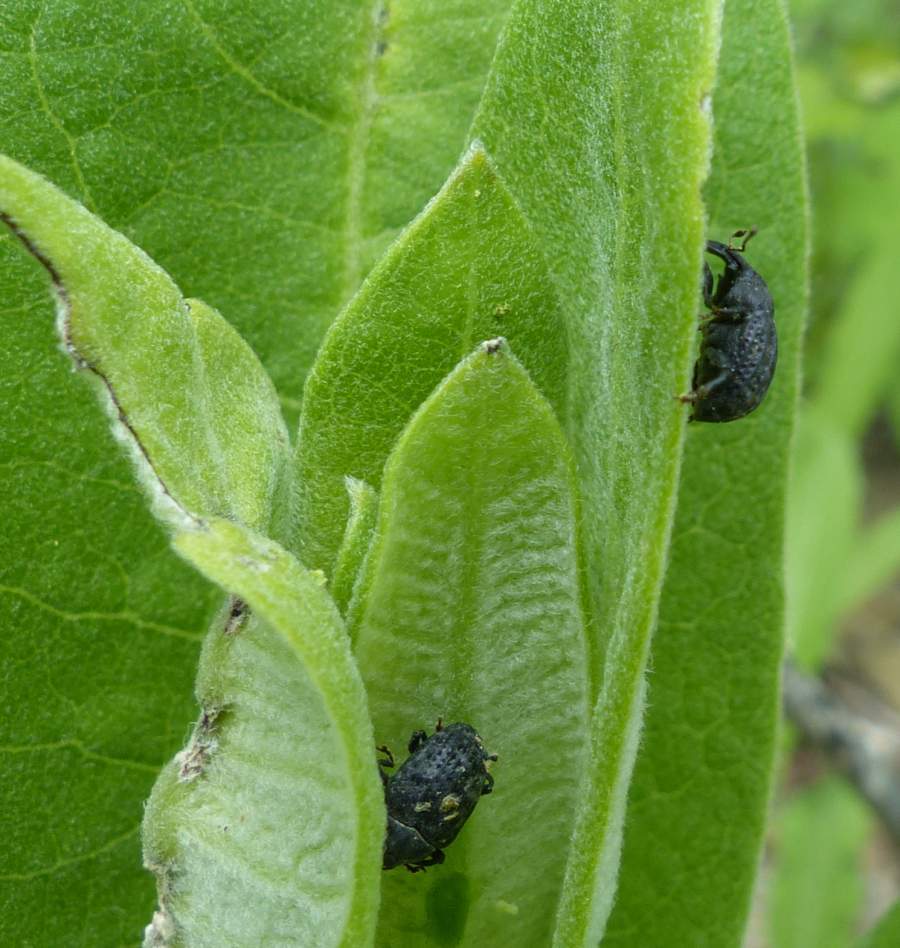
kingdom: Animalia
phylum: Arthropoda
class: Insecta
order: Coleoptera
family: Curculionidae
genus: Rhyssomatus
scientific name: Rhyssomatus lineaticollis
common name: Milkweed stem weevil
